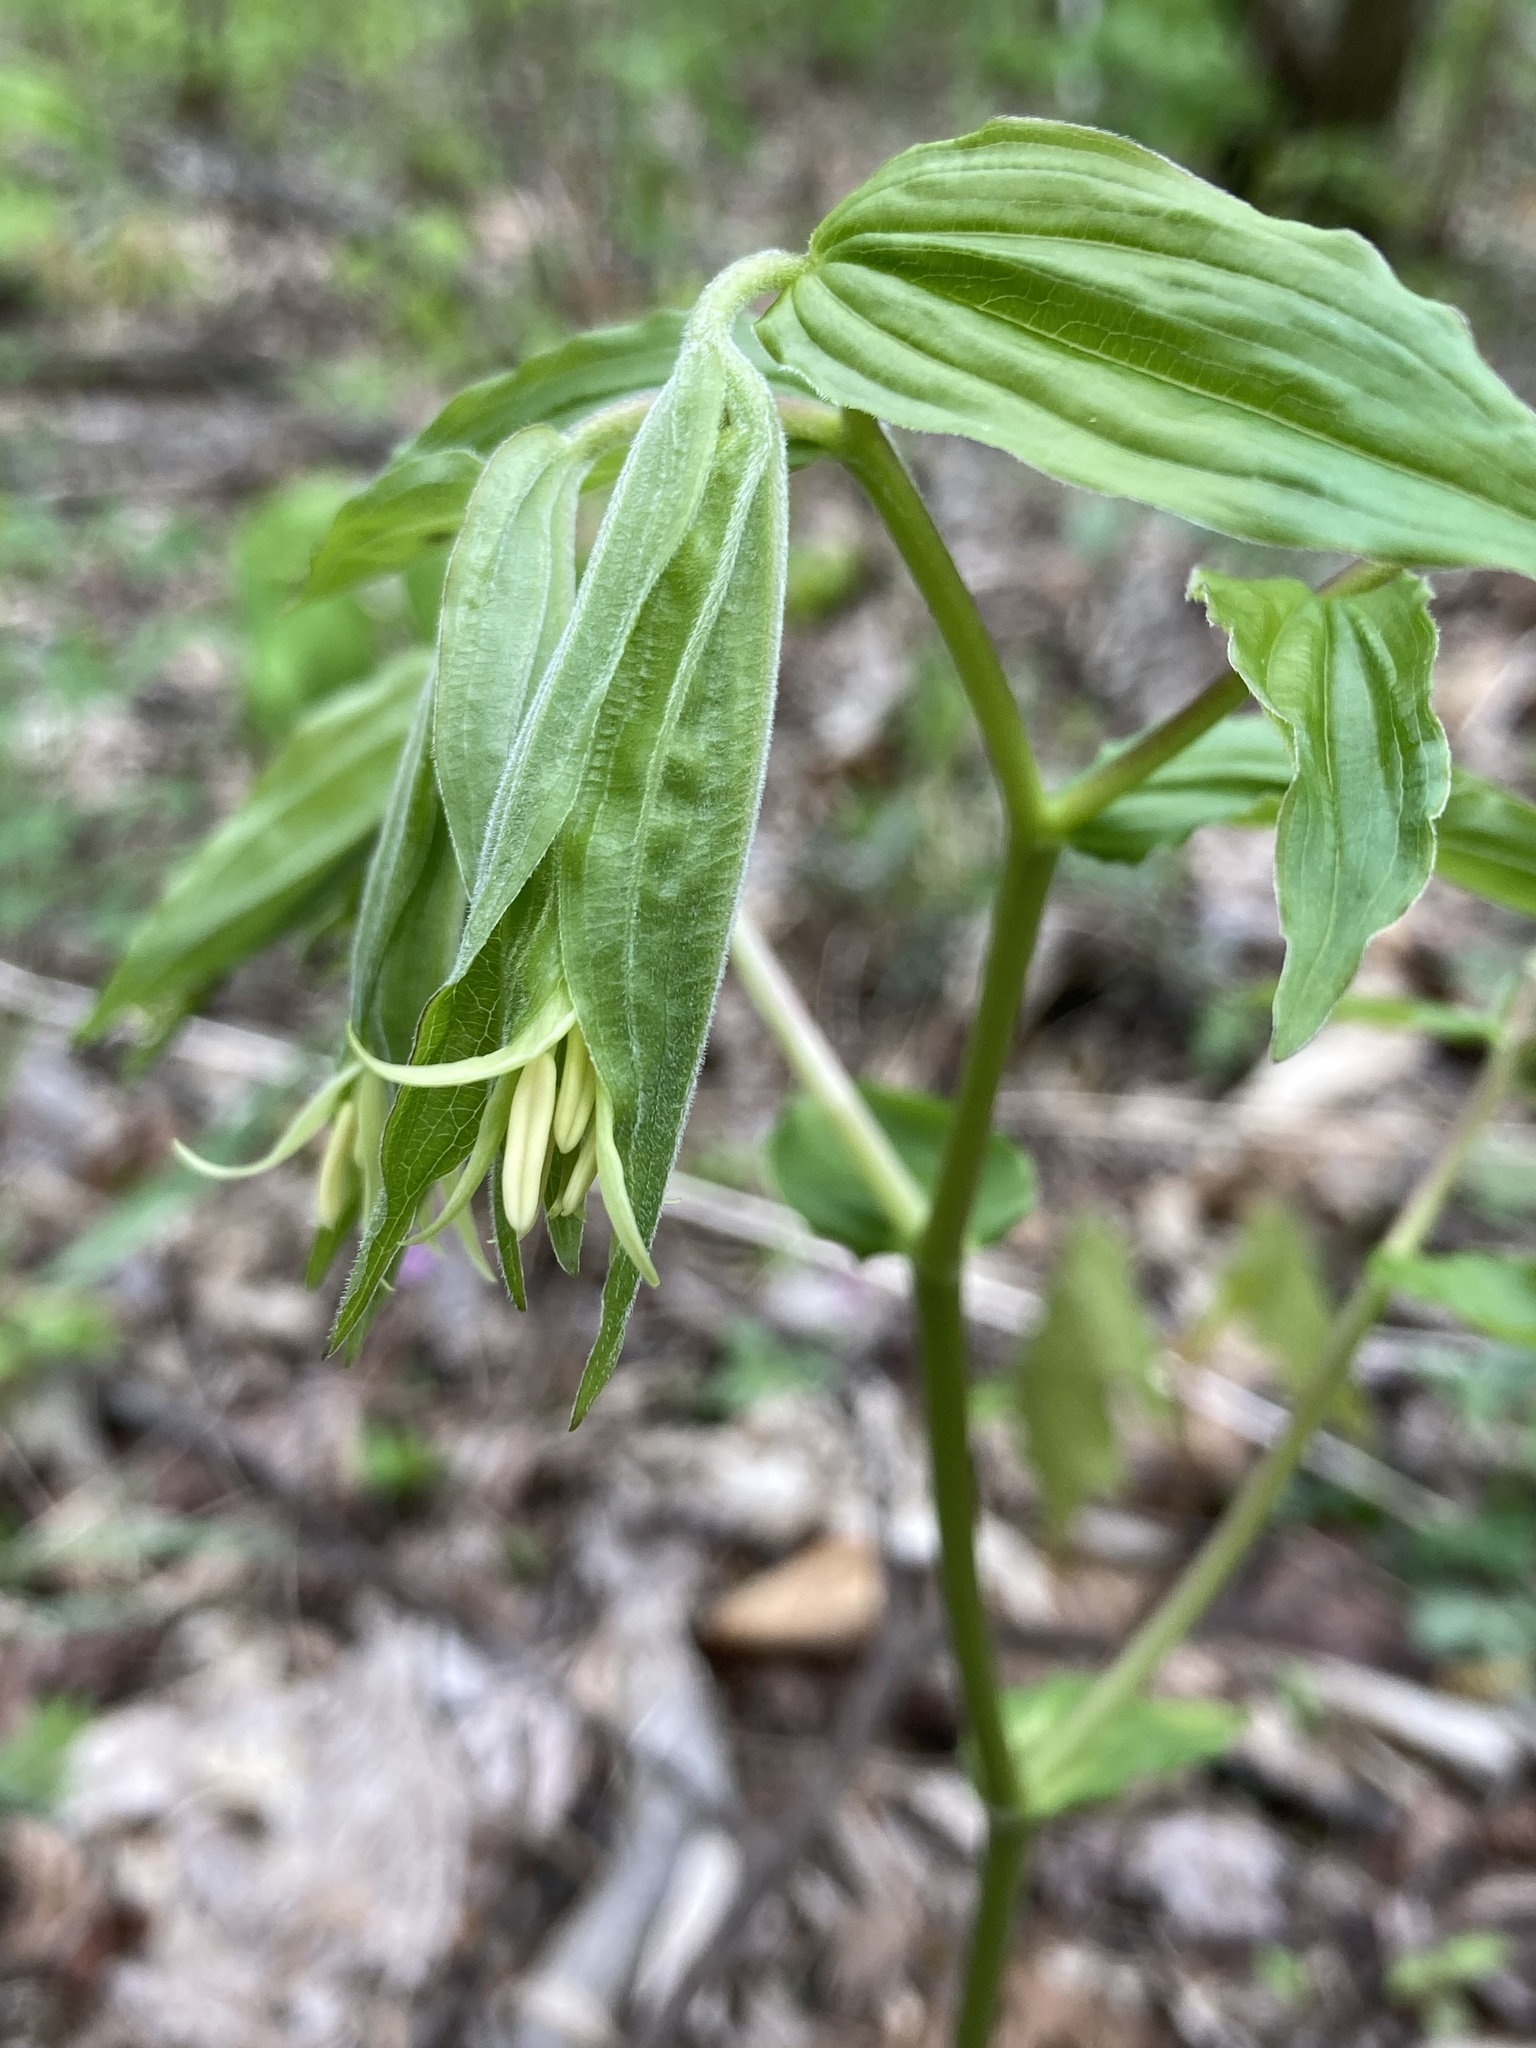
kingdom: Plantae
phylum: Tracheophyta
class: Liliopsida
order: Liliales
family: Liliaceae
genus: Prosartes
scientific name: Prosartes lanuginosa
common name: Hairy mandarin
